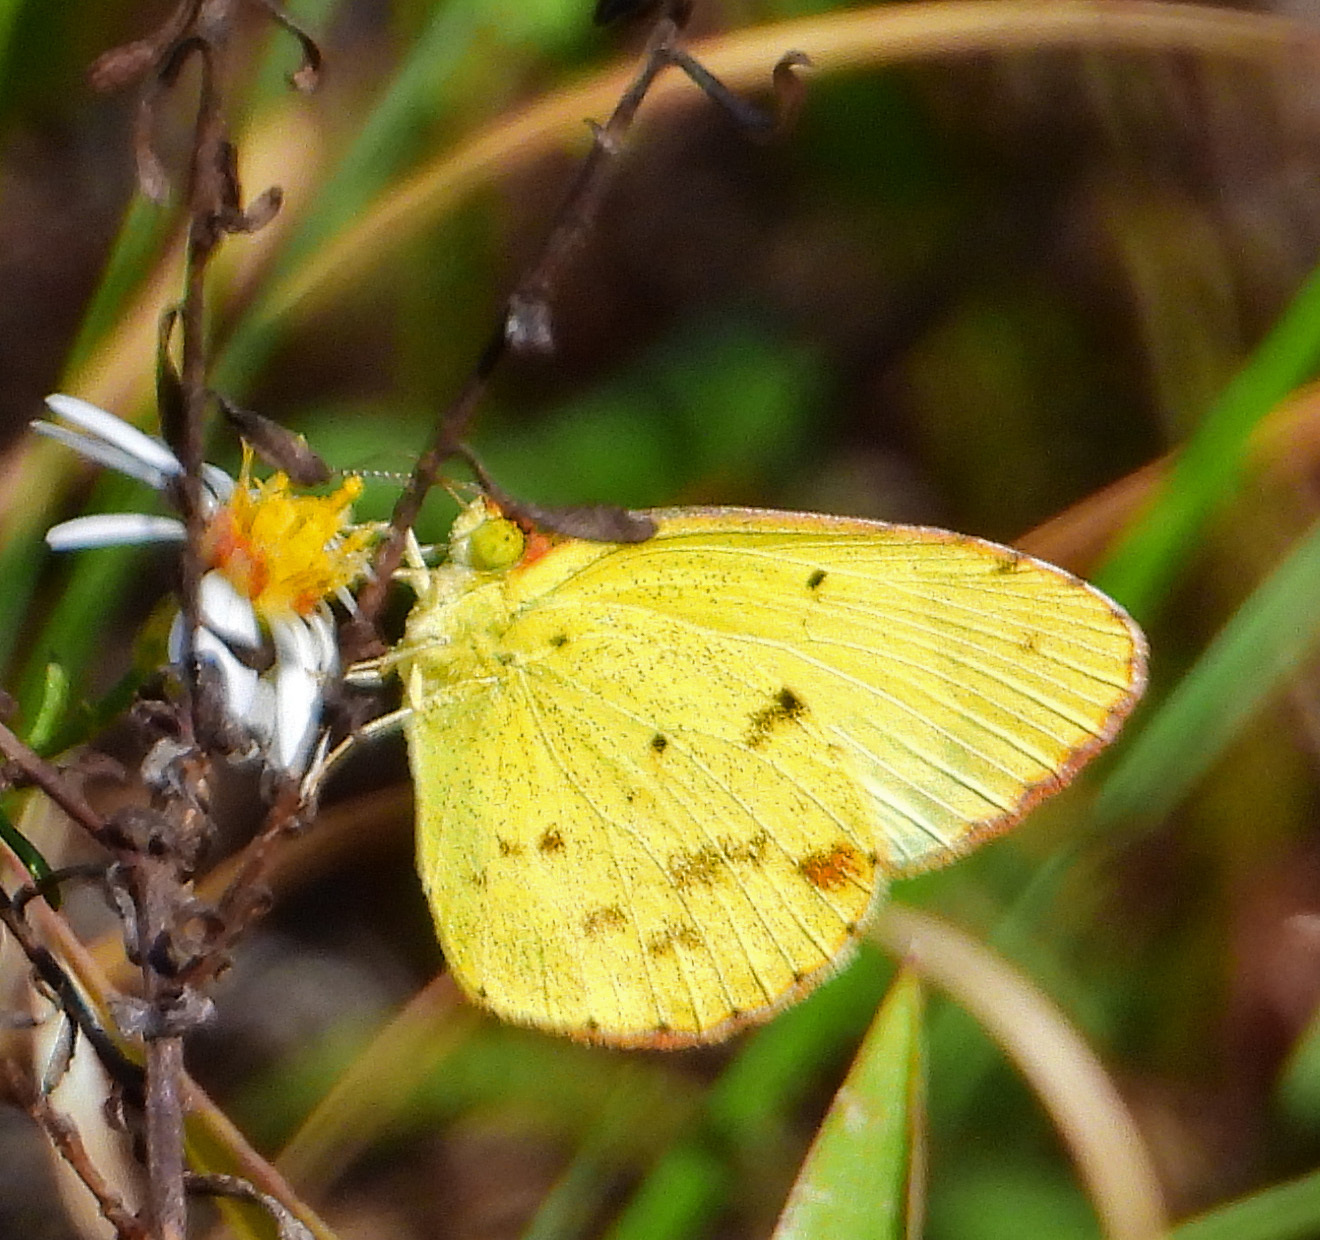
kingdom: Animalia
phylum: Arthropoda
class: Insecta
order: Lepidoptera
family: Pieridae
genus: Pyrisitia
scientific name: Pyrisitia lisa
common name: Little yellow
